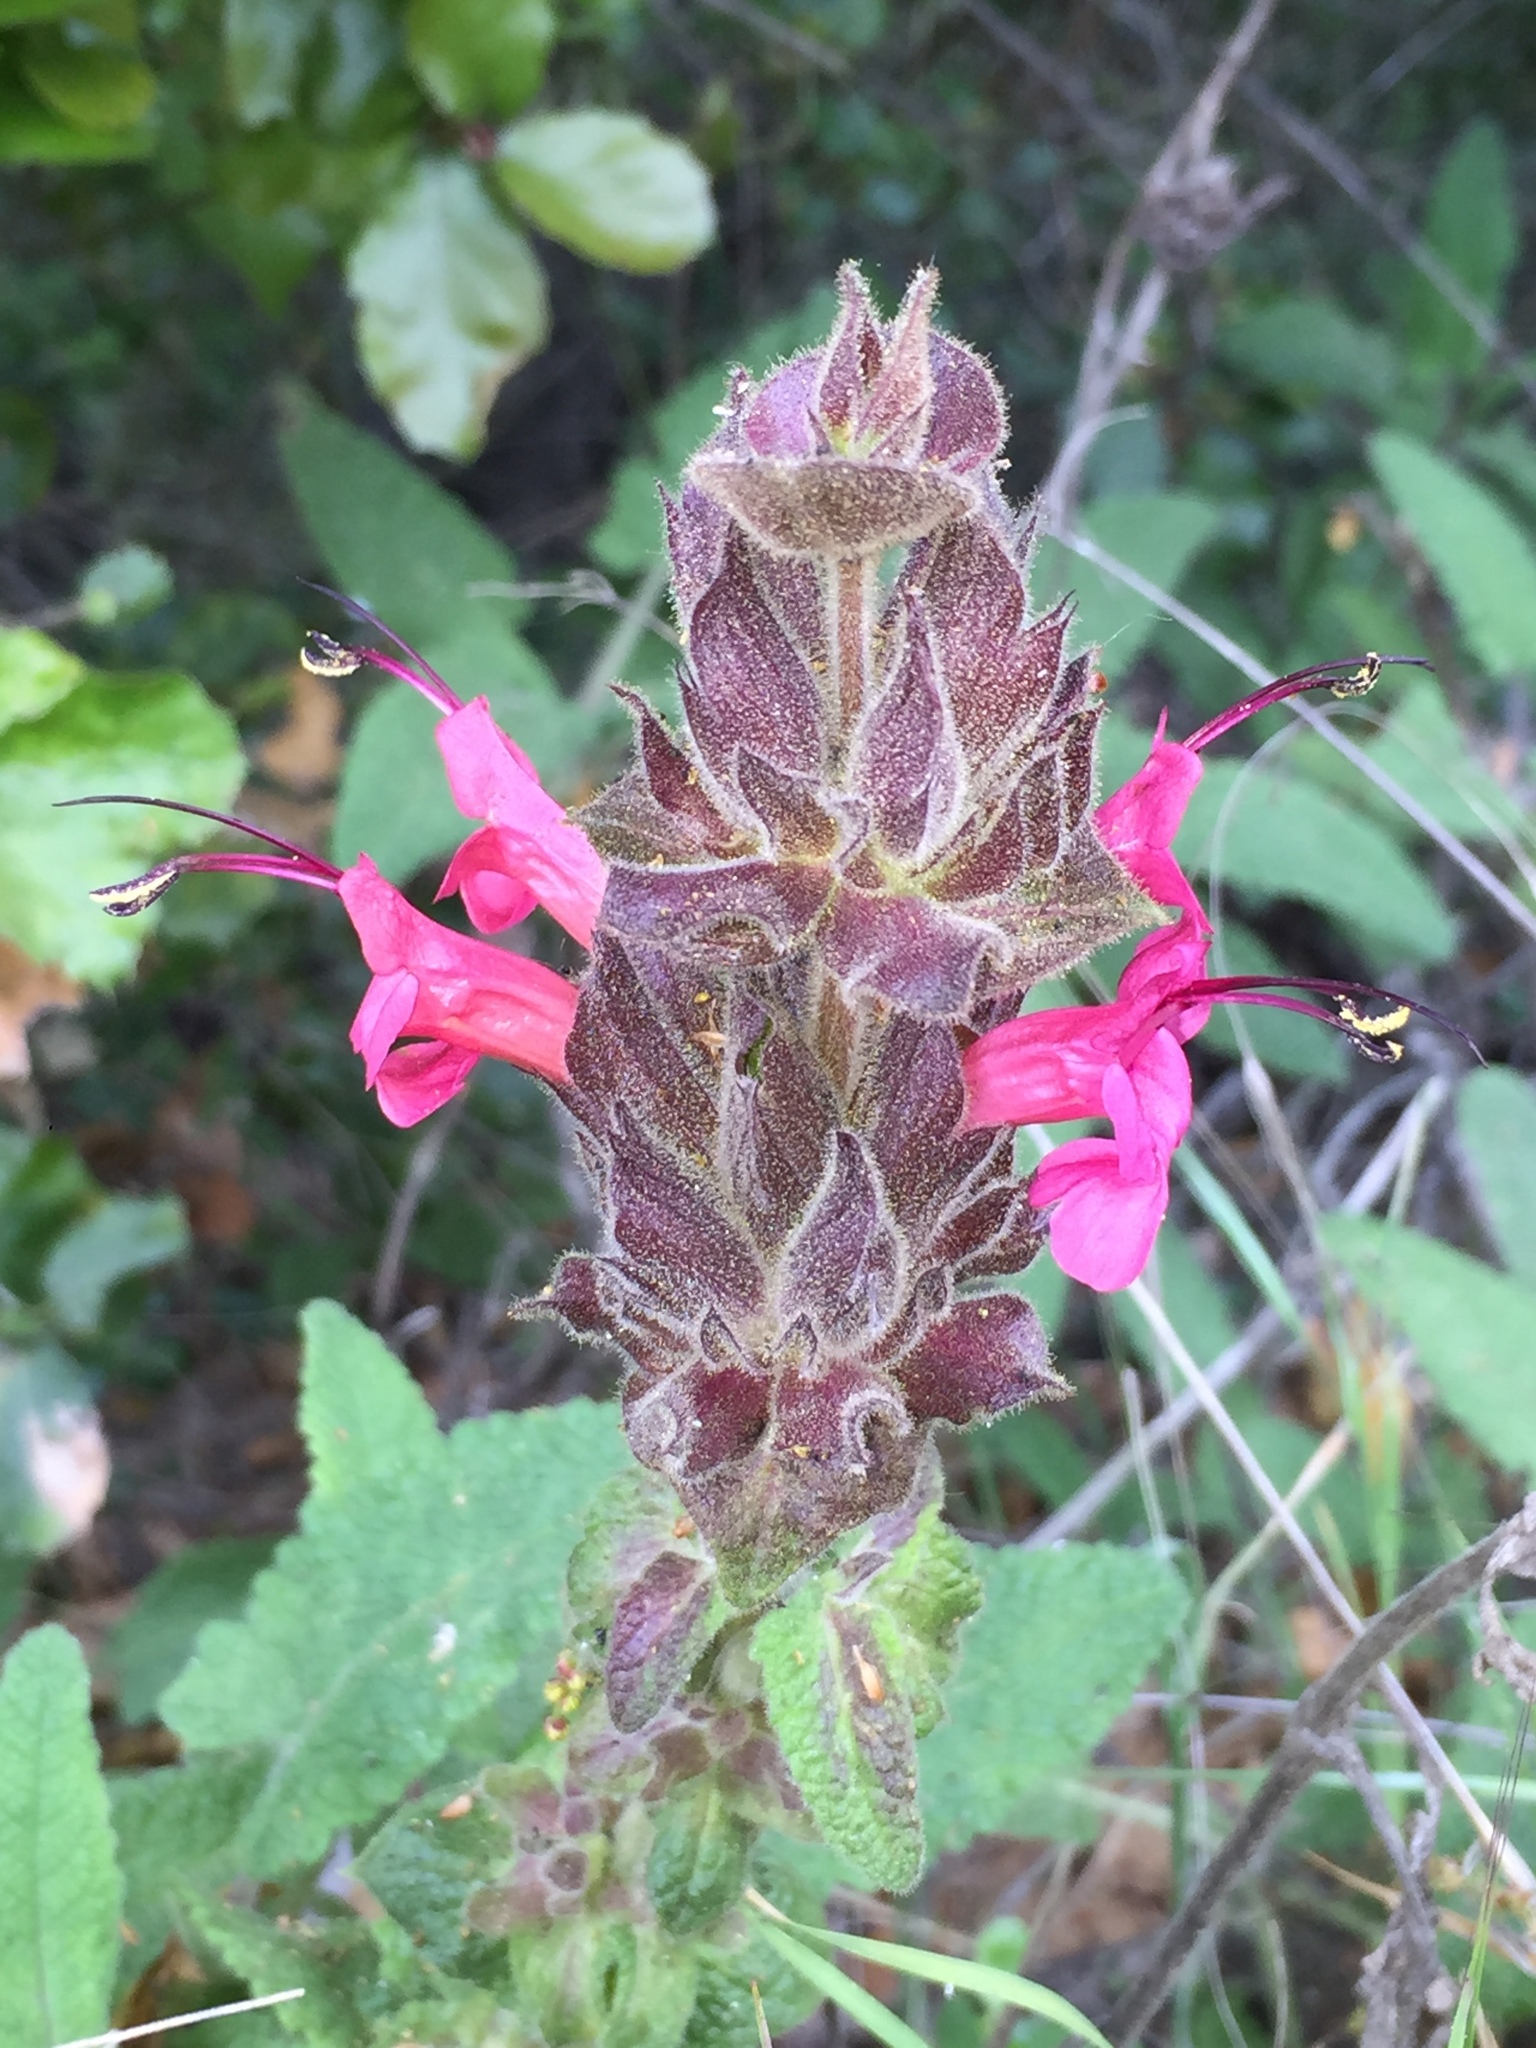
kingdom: Plantae
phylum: Tracheophyta
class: Magnoliopsida
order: Lamiales
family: Lamiaceae
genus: Salvia
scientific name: Salvia spathacea
